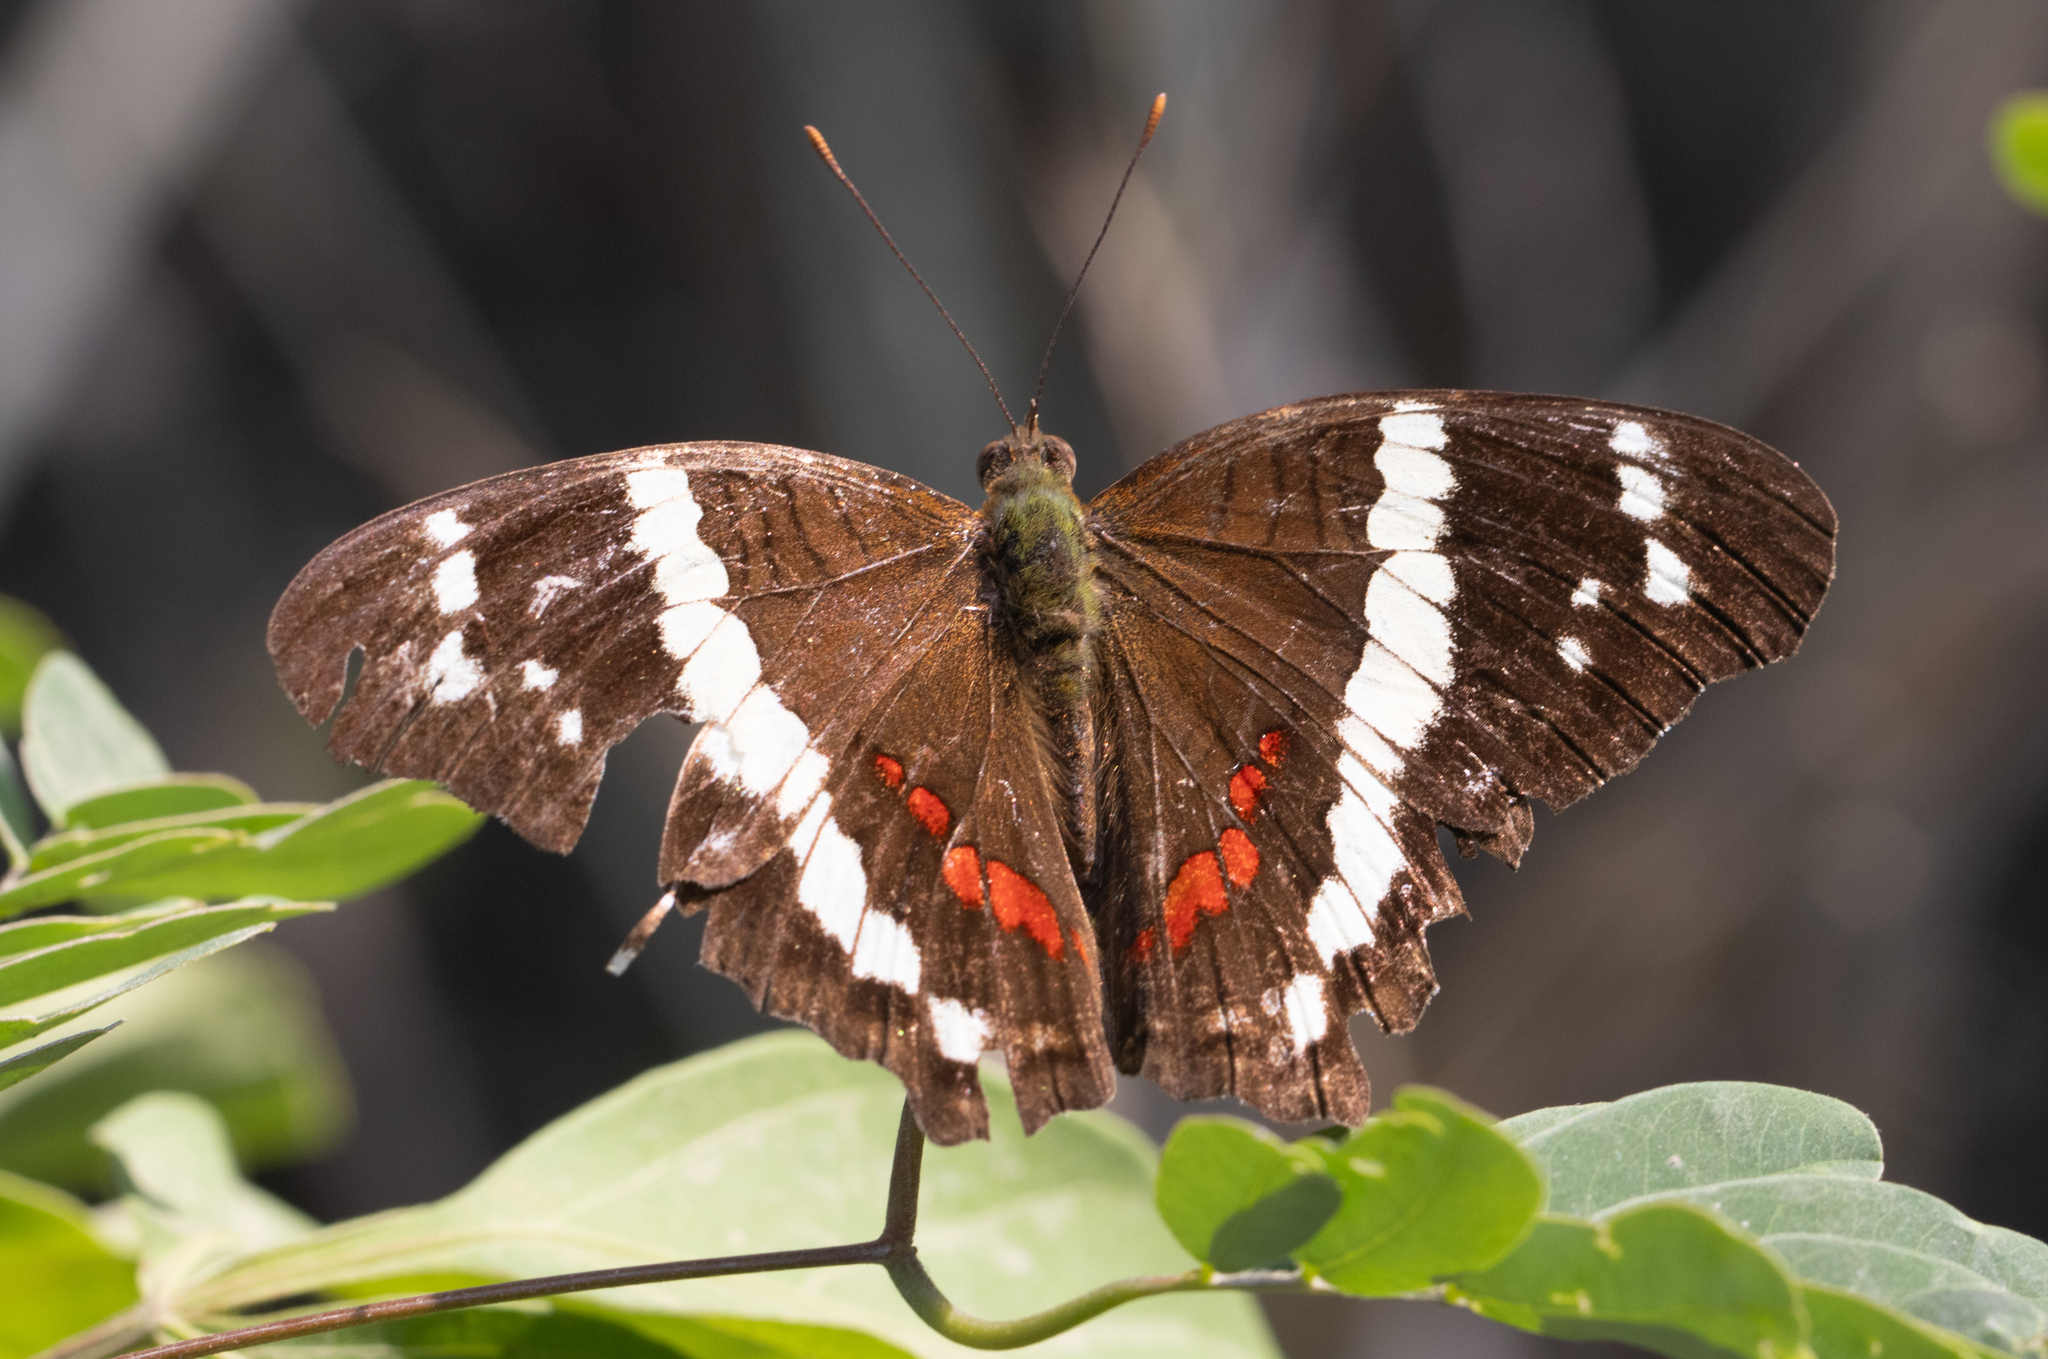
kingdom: Animalia
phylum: Arthropoda
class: Insecta
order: Lepidoptera
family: Nymphalidae
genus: Anartia
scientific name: Anartia fatima
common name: Banded peacock
